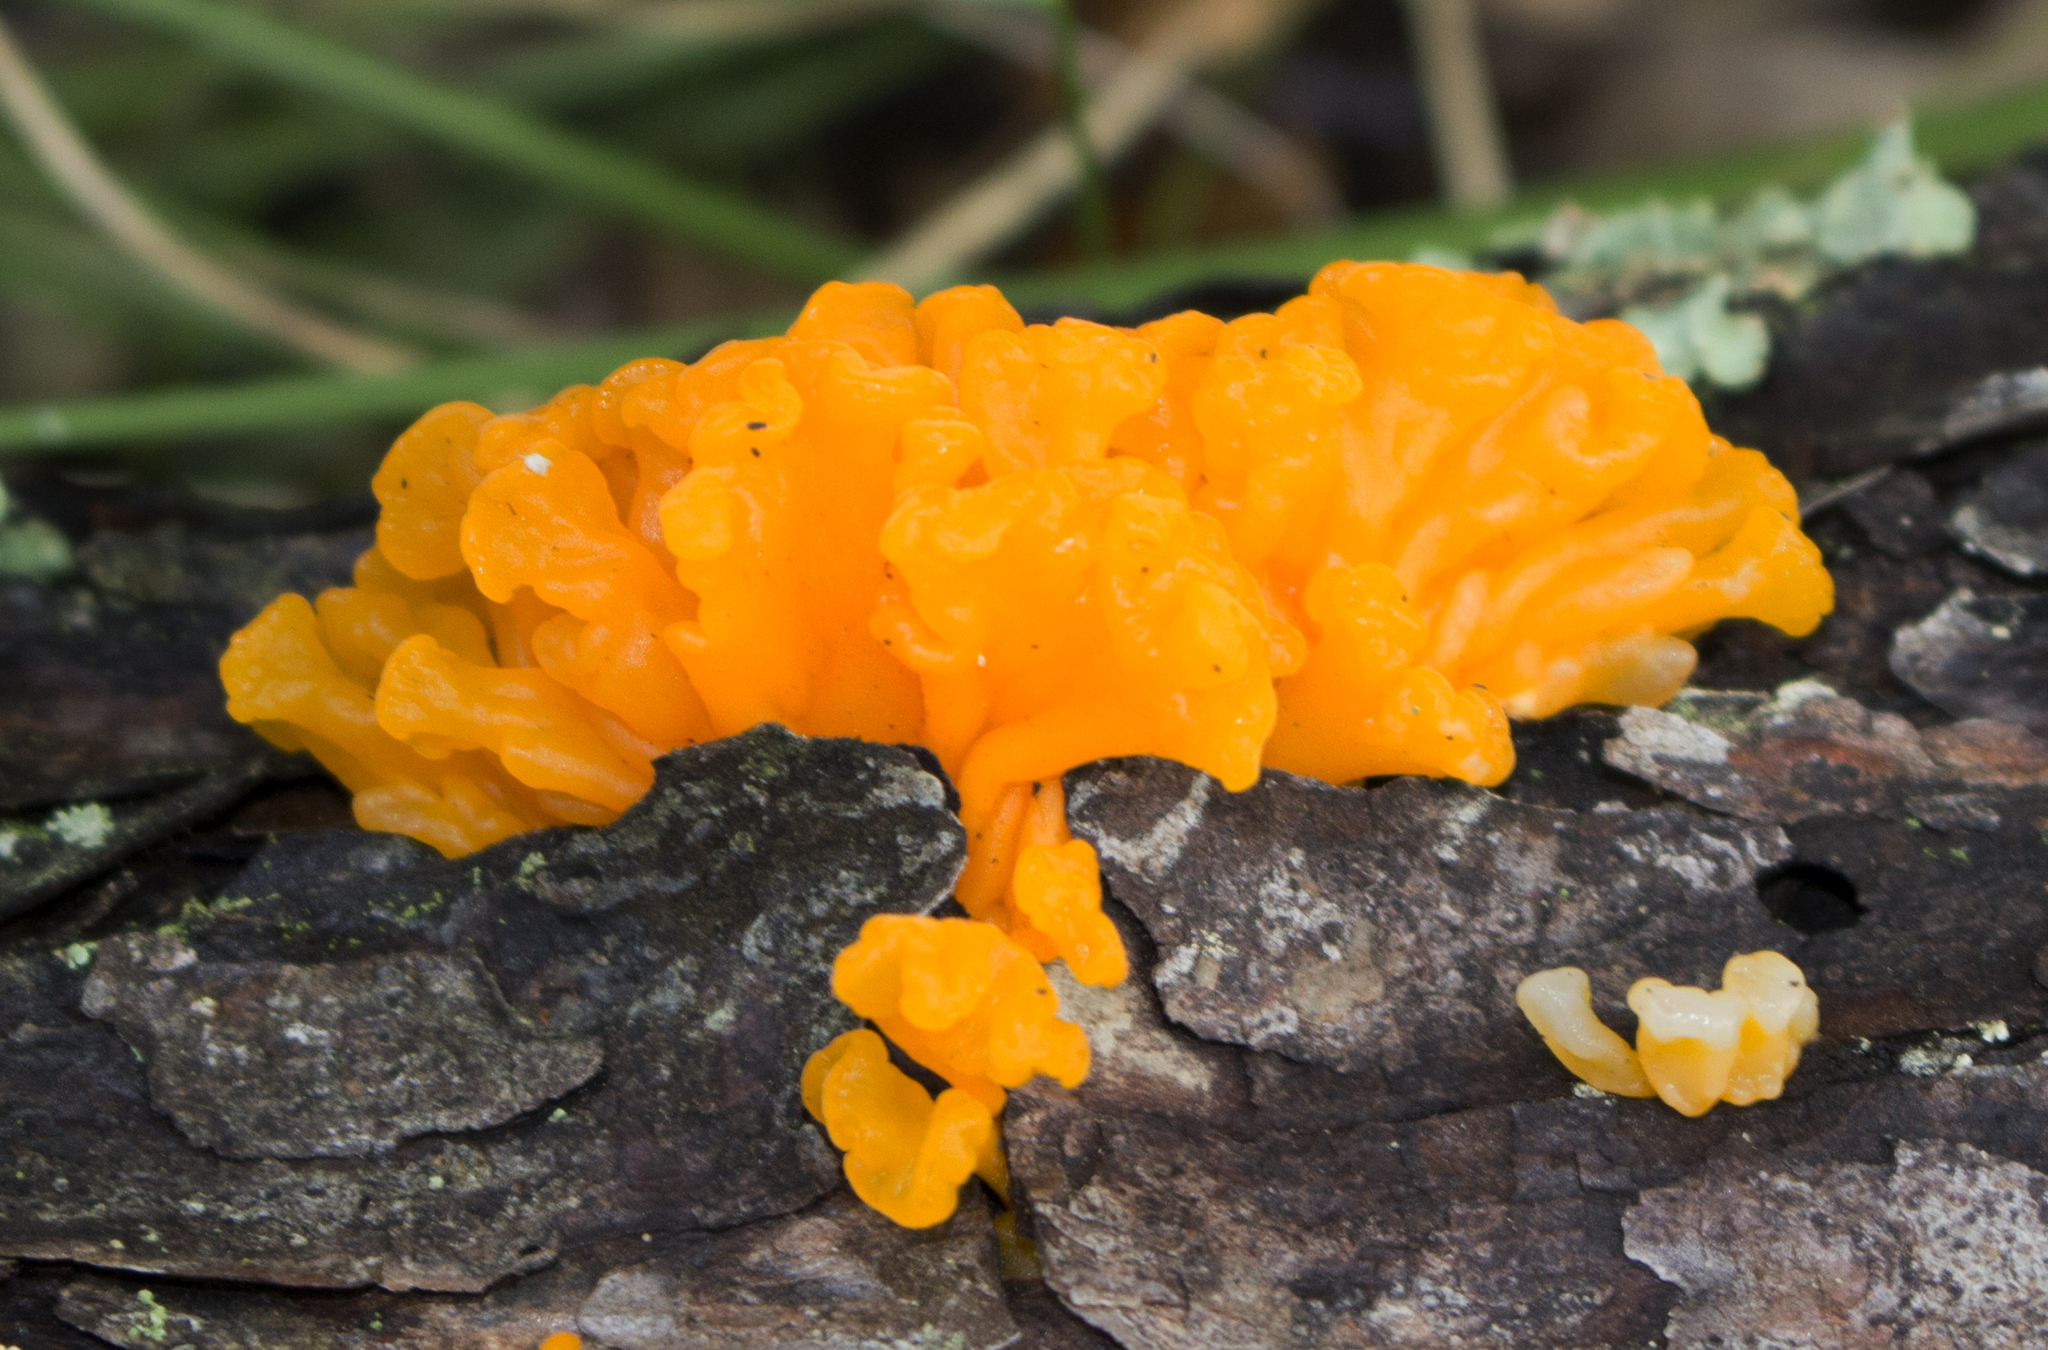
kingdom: Fungi
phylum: Basidiomycota
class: Dacrymycetes
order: Dacrymycetales
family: Dacrymycetaceae
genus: Dacrymyces
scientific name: Dacrymyces chrysospermus
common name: Orange jelly spot
